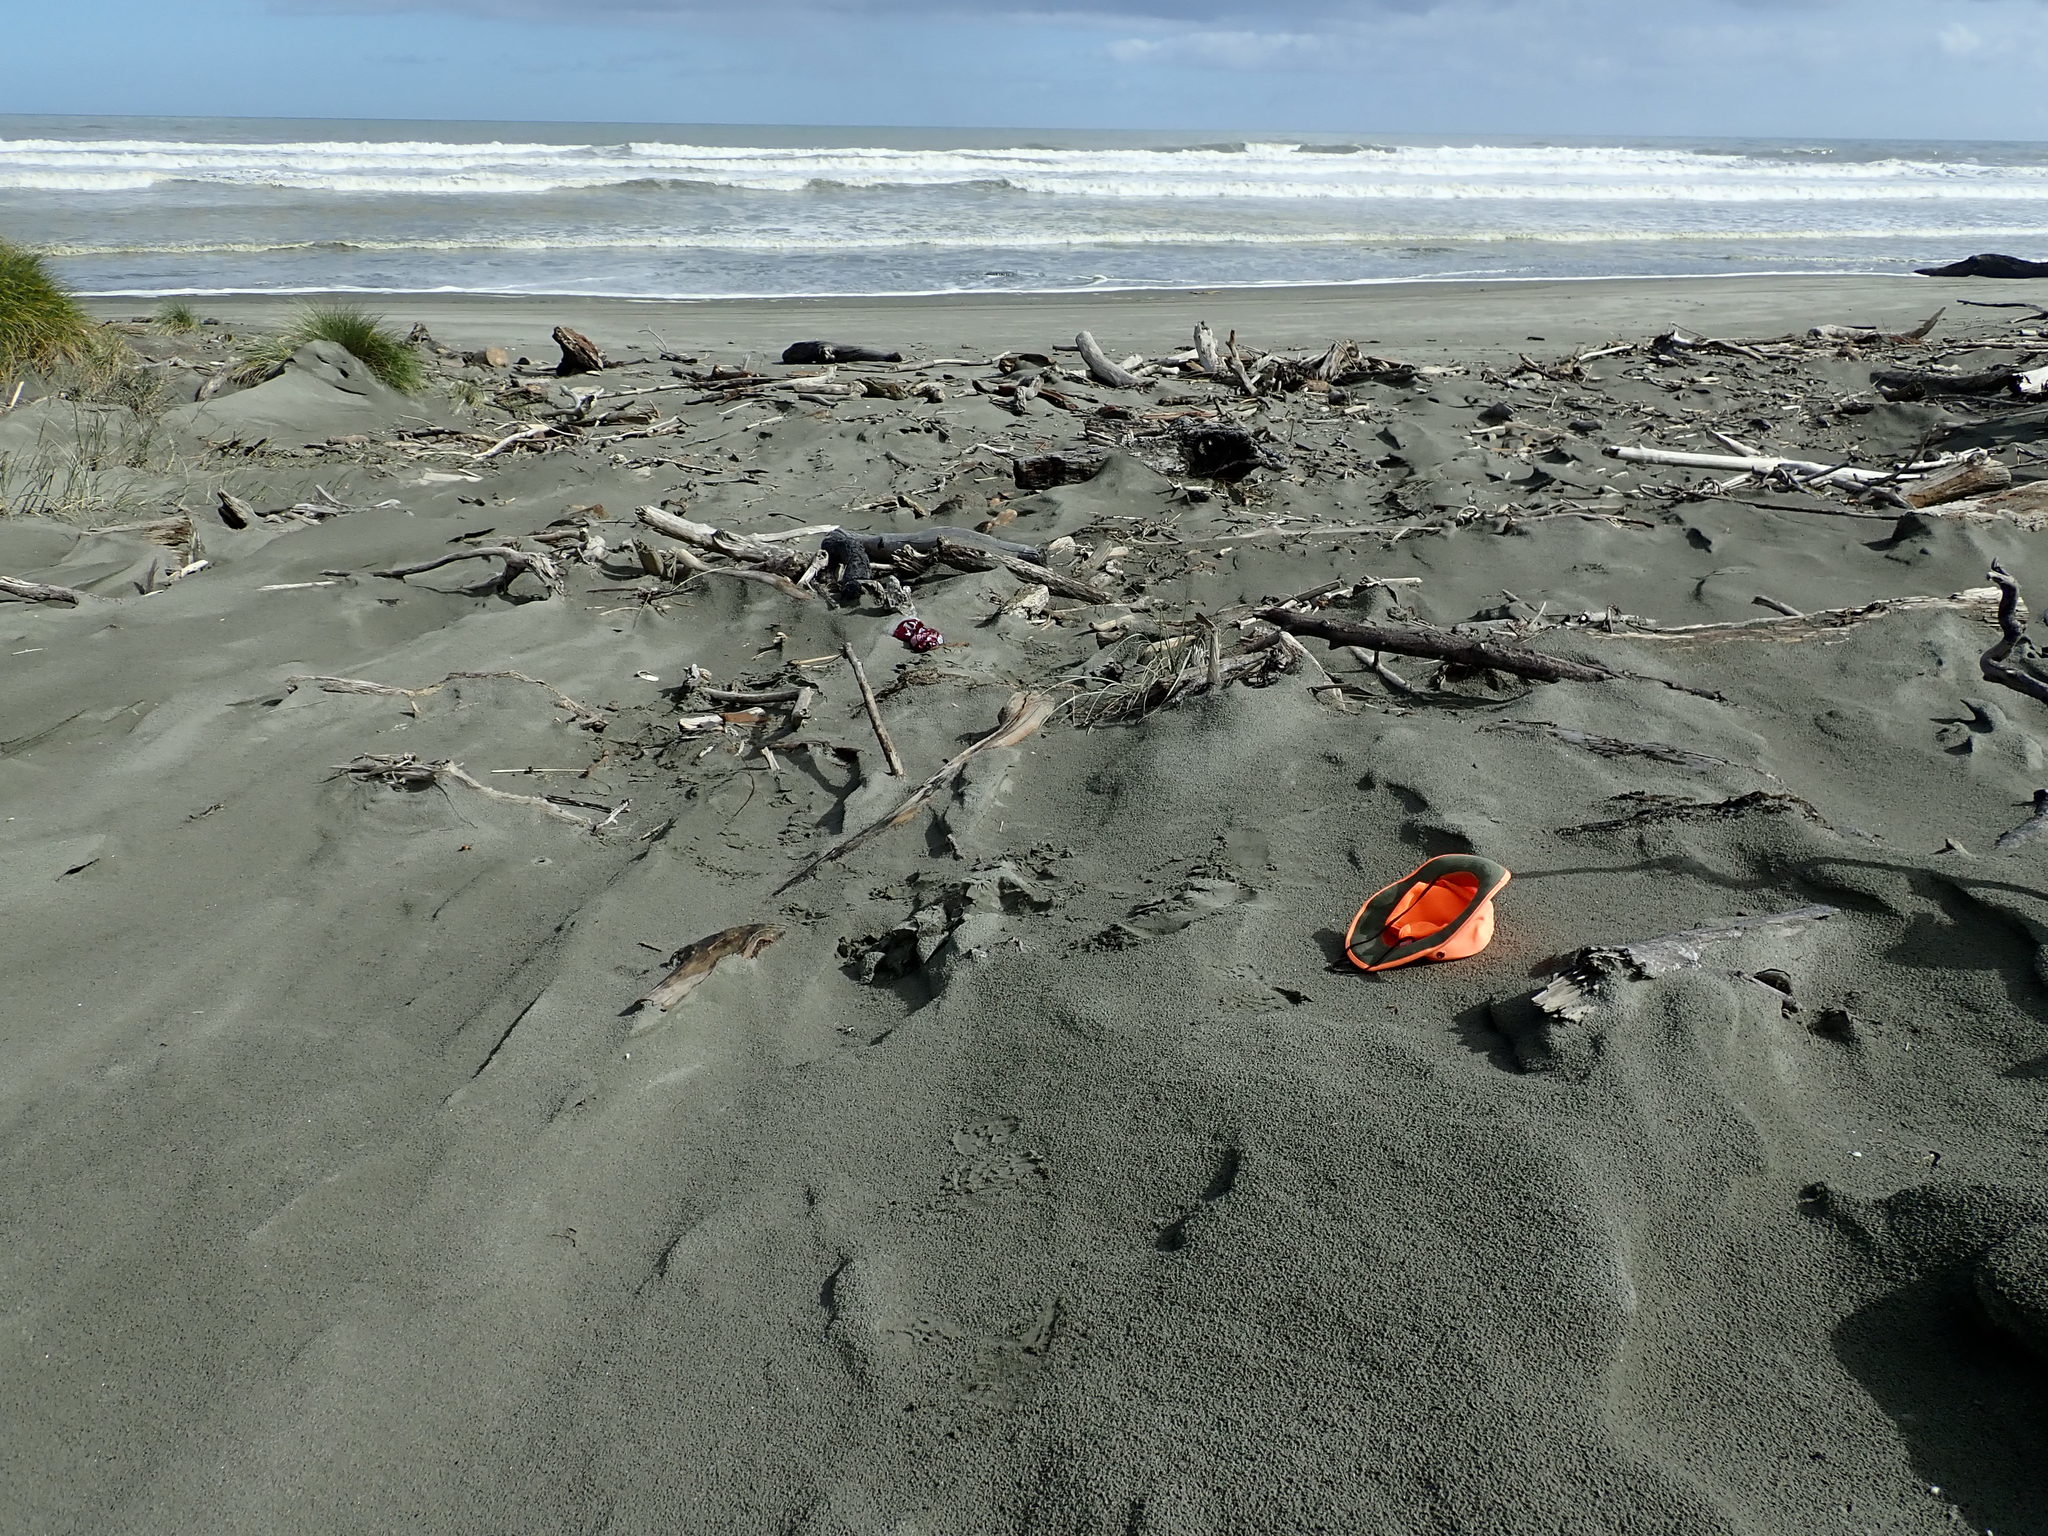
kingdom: Animalia
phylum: Arthropoda
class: Arachnida
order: Araneae
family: Lycosidae
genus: Anoteropsis
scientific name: Anoteropsis litoralis
